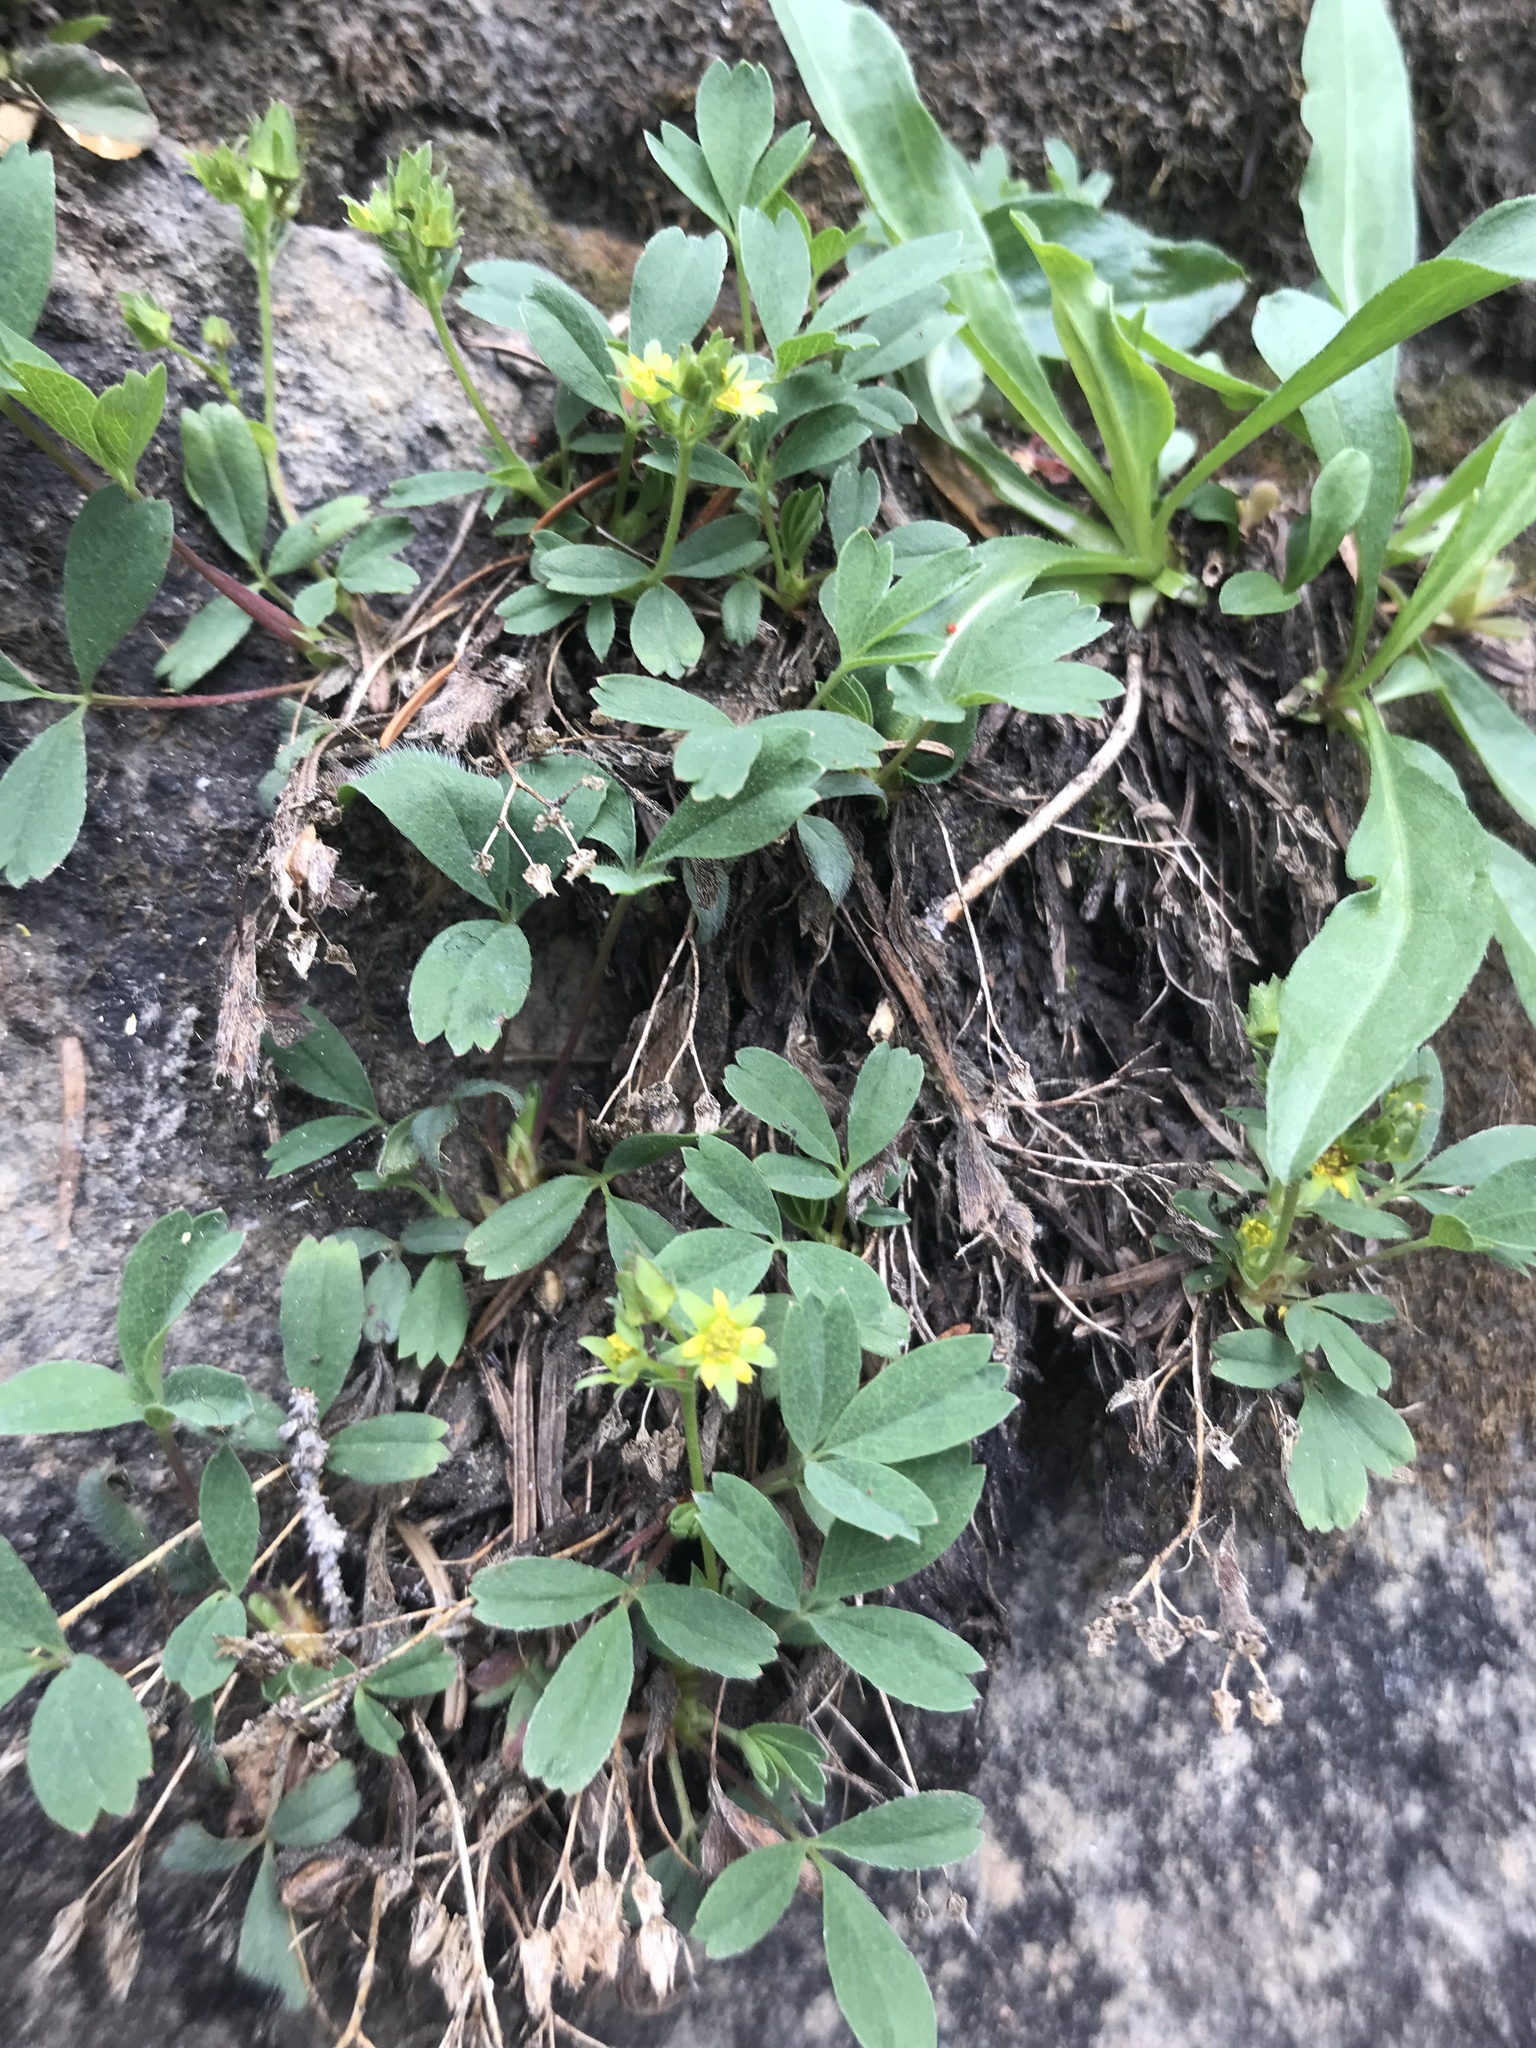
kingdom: Plantae
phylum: Tracheophyta
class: Magnoliopsida
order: Rosales
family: Rosaceae
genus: Sibbaldia
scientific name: Sibbaldia procumbens
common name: Creeping sibbaldia
